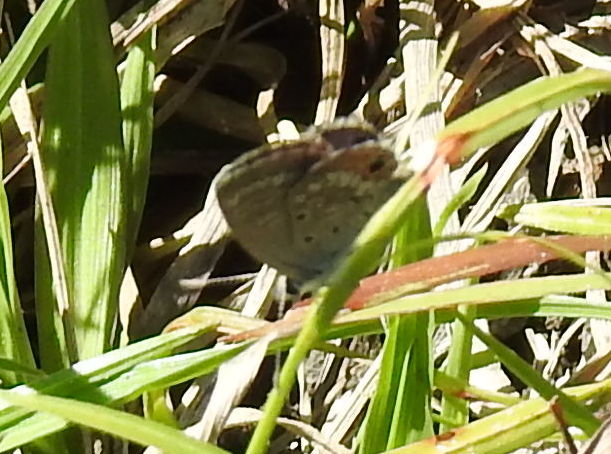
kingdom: Animalia
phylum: Arthropoda
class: Insecta
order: Lepidoptera
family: Lycaenidae
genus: Hemiargus
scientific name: Hemiargus ceraunus
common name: Ceraunus blue
